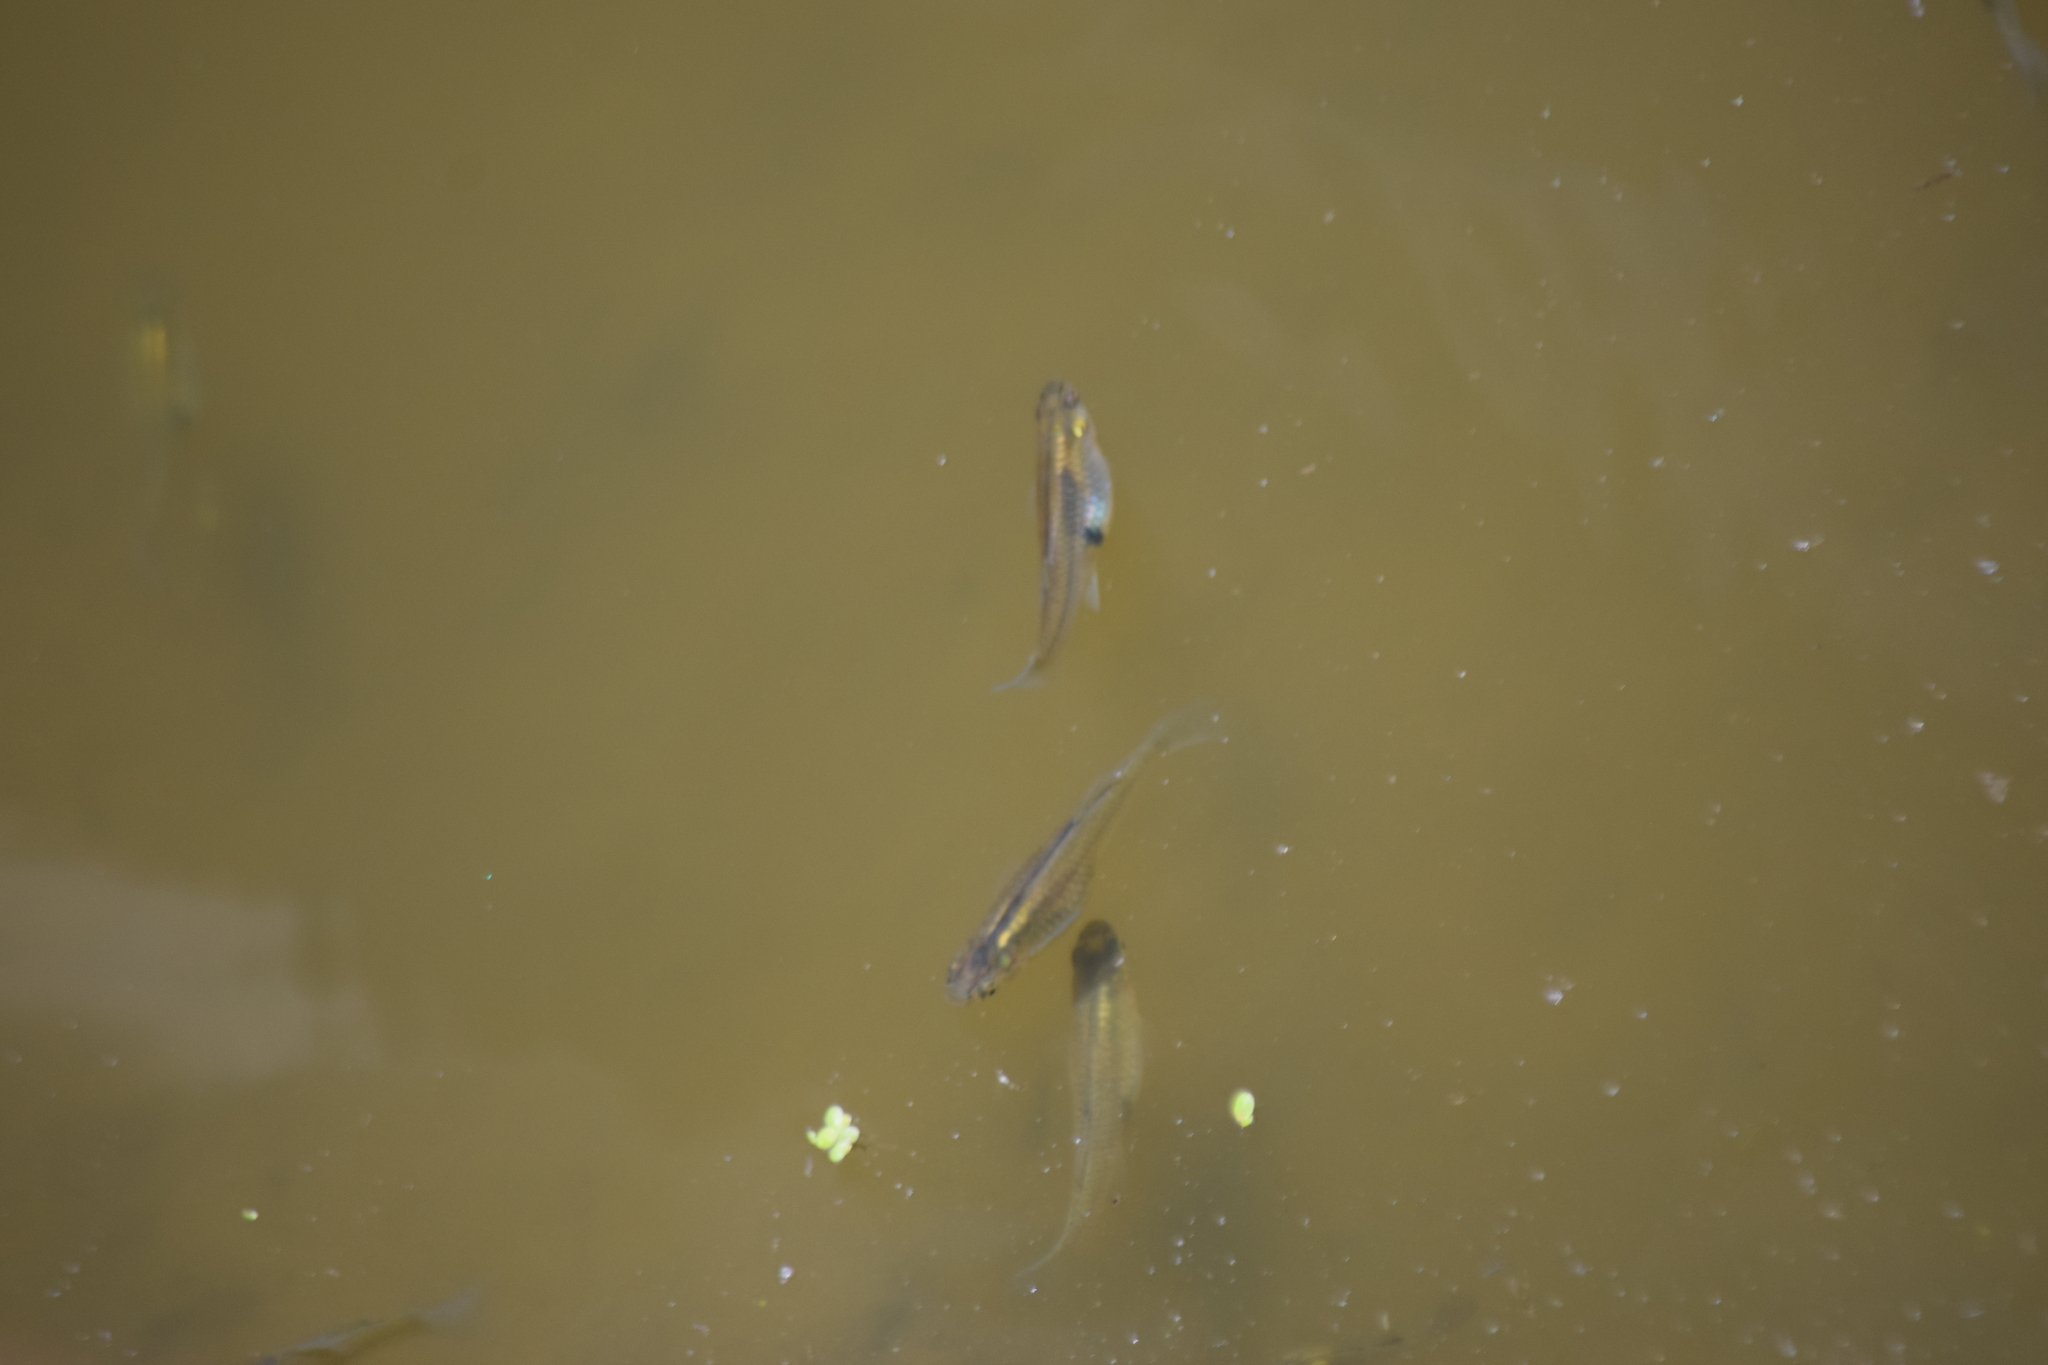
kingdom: Animalia
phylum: Chordata
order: Cyprinodontiformes
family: Poeciliidae
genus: Gambusia
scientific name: Gambusia holbrooki
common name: Eastern mosquitofish
